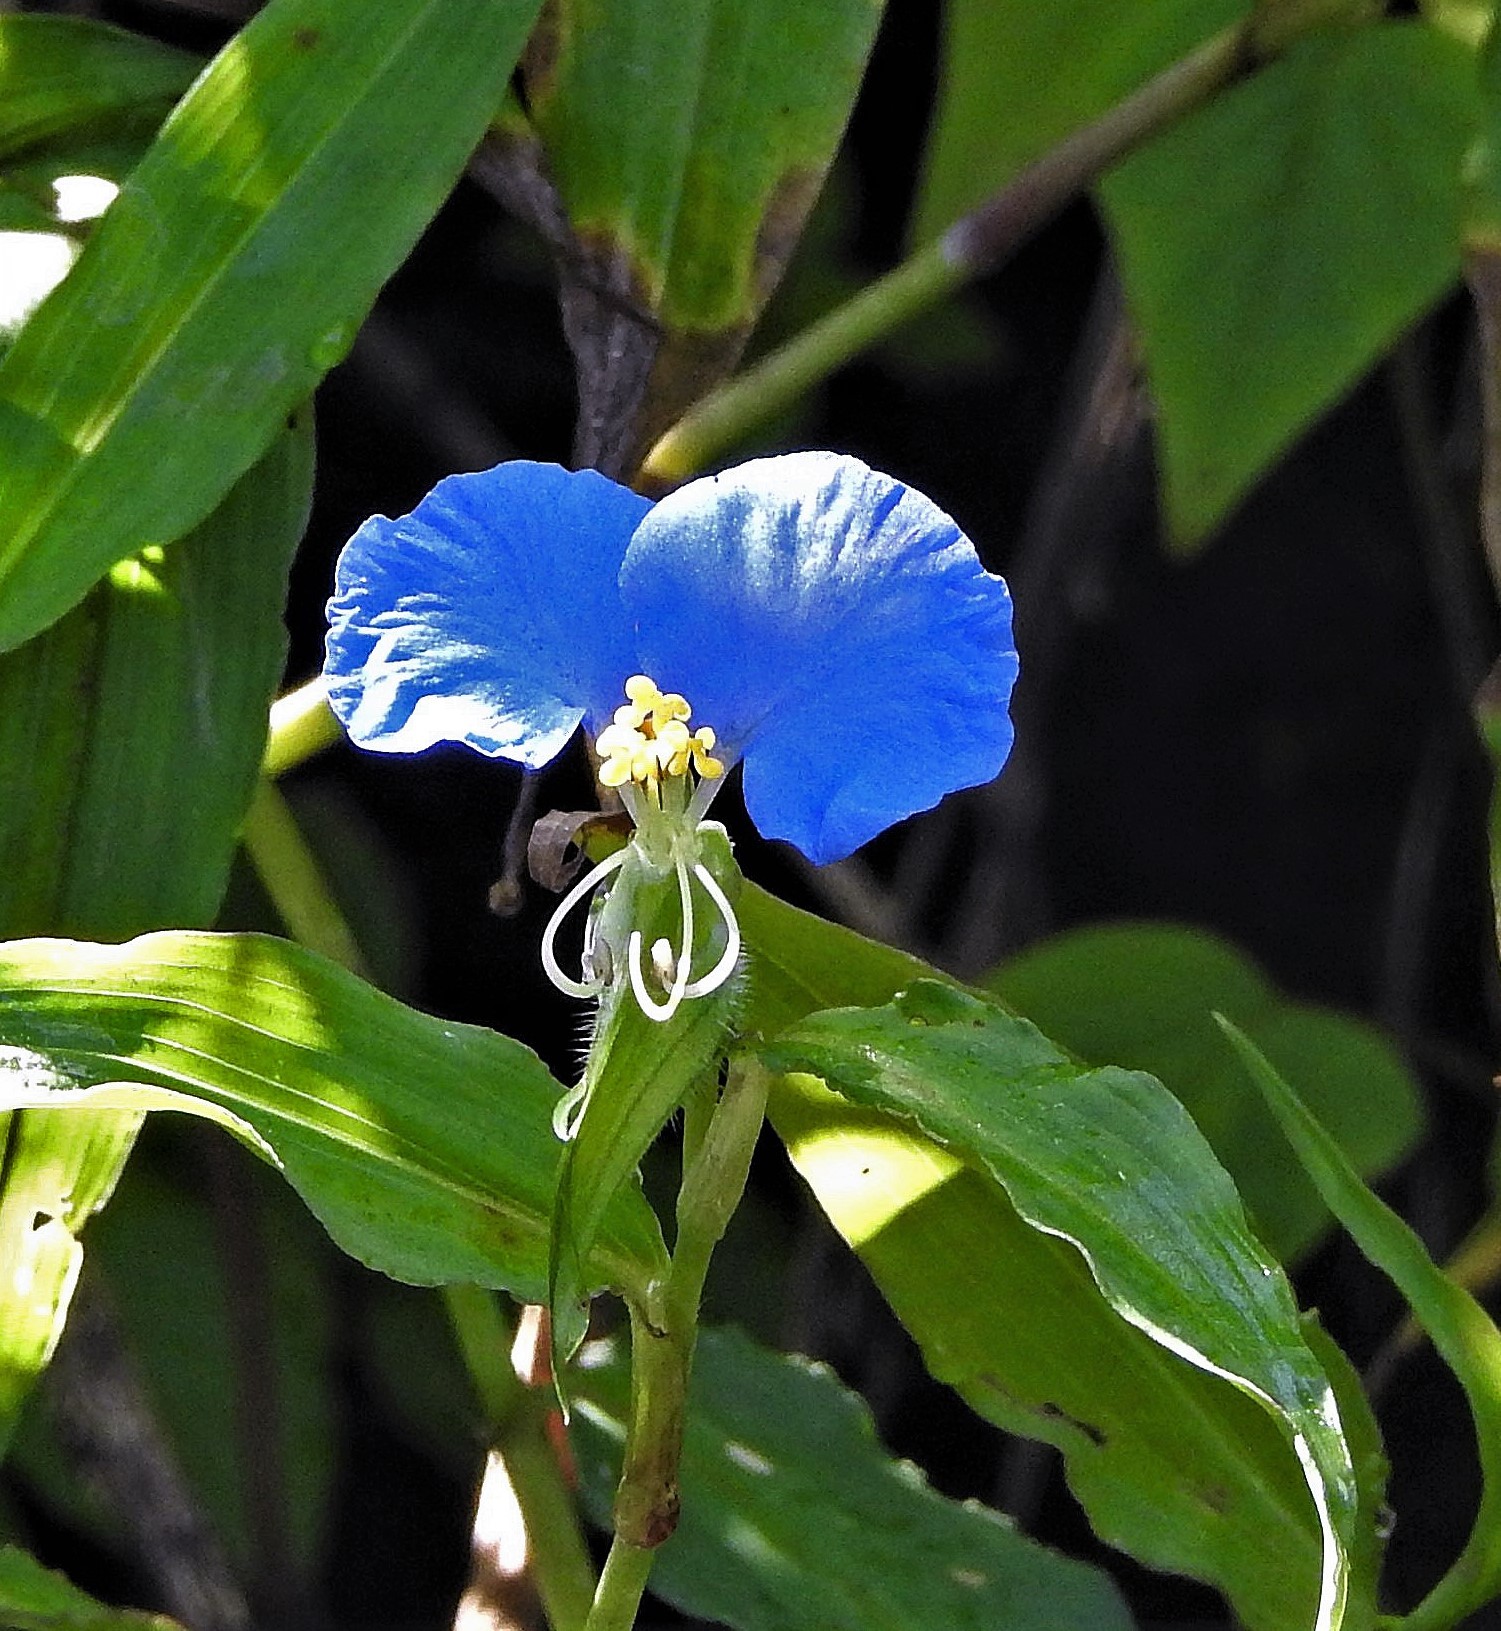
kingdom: Plantae
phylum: Tracheophyta
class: Liliopsida
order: Commelinales
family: Commelinaceae
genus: Commelina
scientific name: Commelina erecta
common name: Blousel blommetjie
